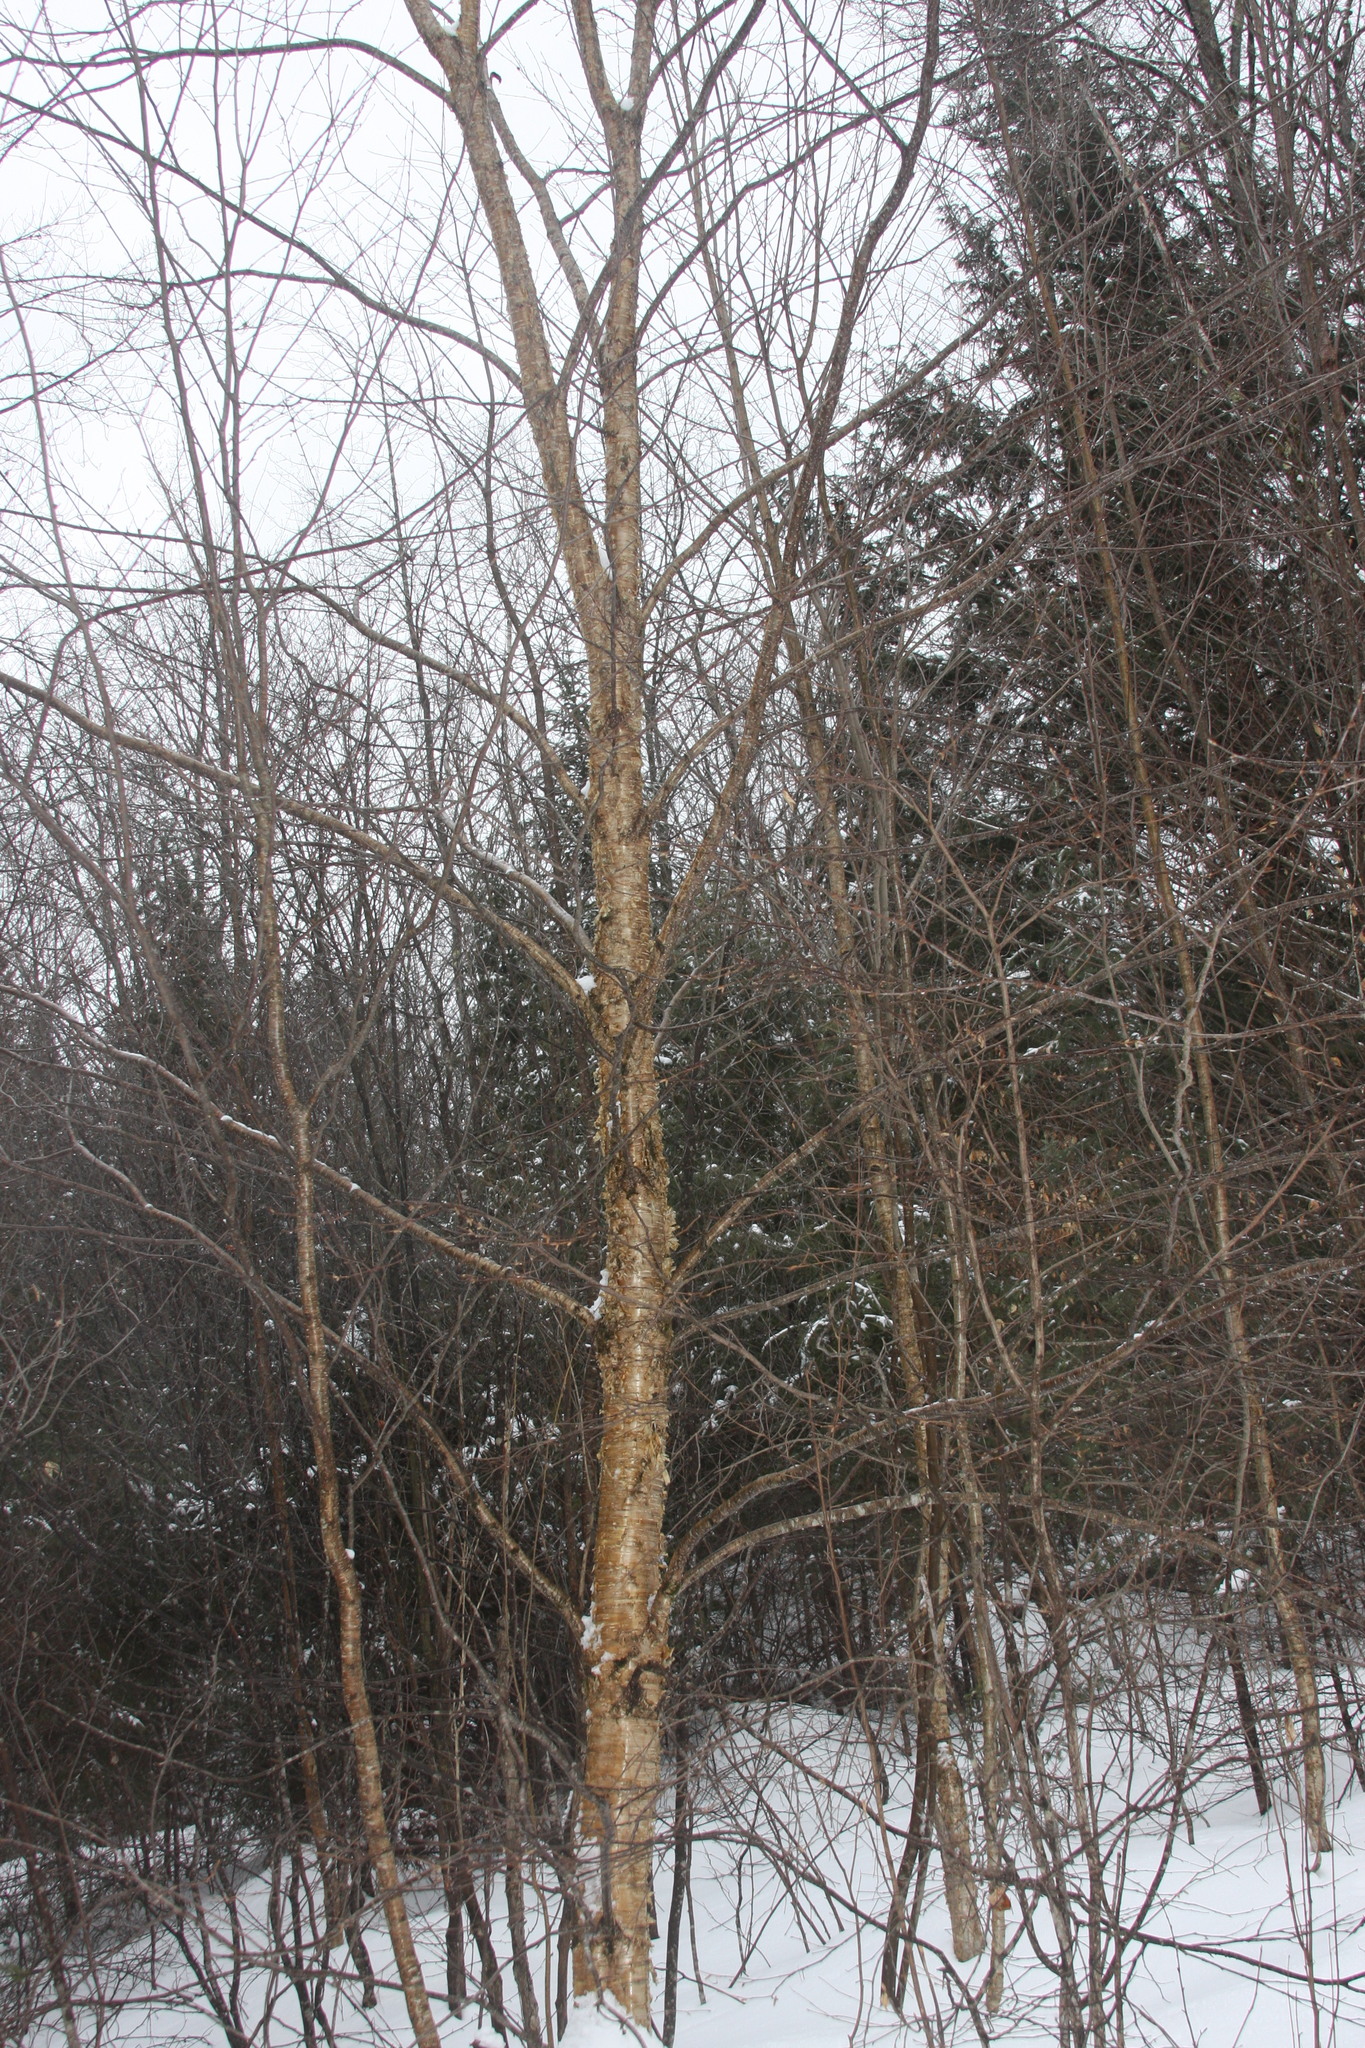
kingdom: Plantae
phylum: Tracheophyta
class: Magnoliopsida
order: Fagales
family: Betulaceae
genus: Betula
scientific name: Betula alleghaniensis
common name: Yellow birch
